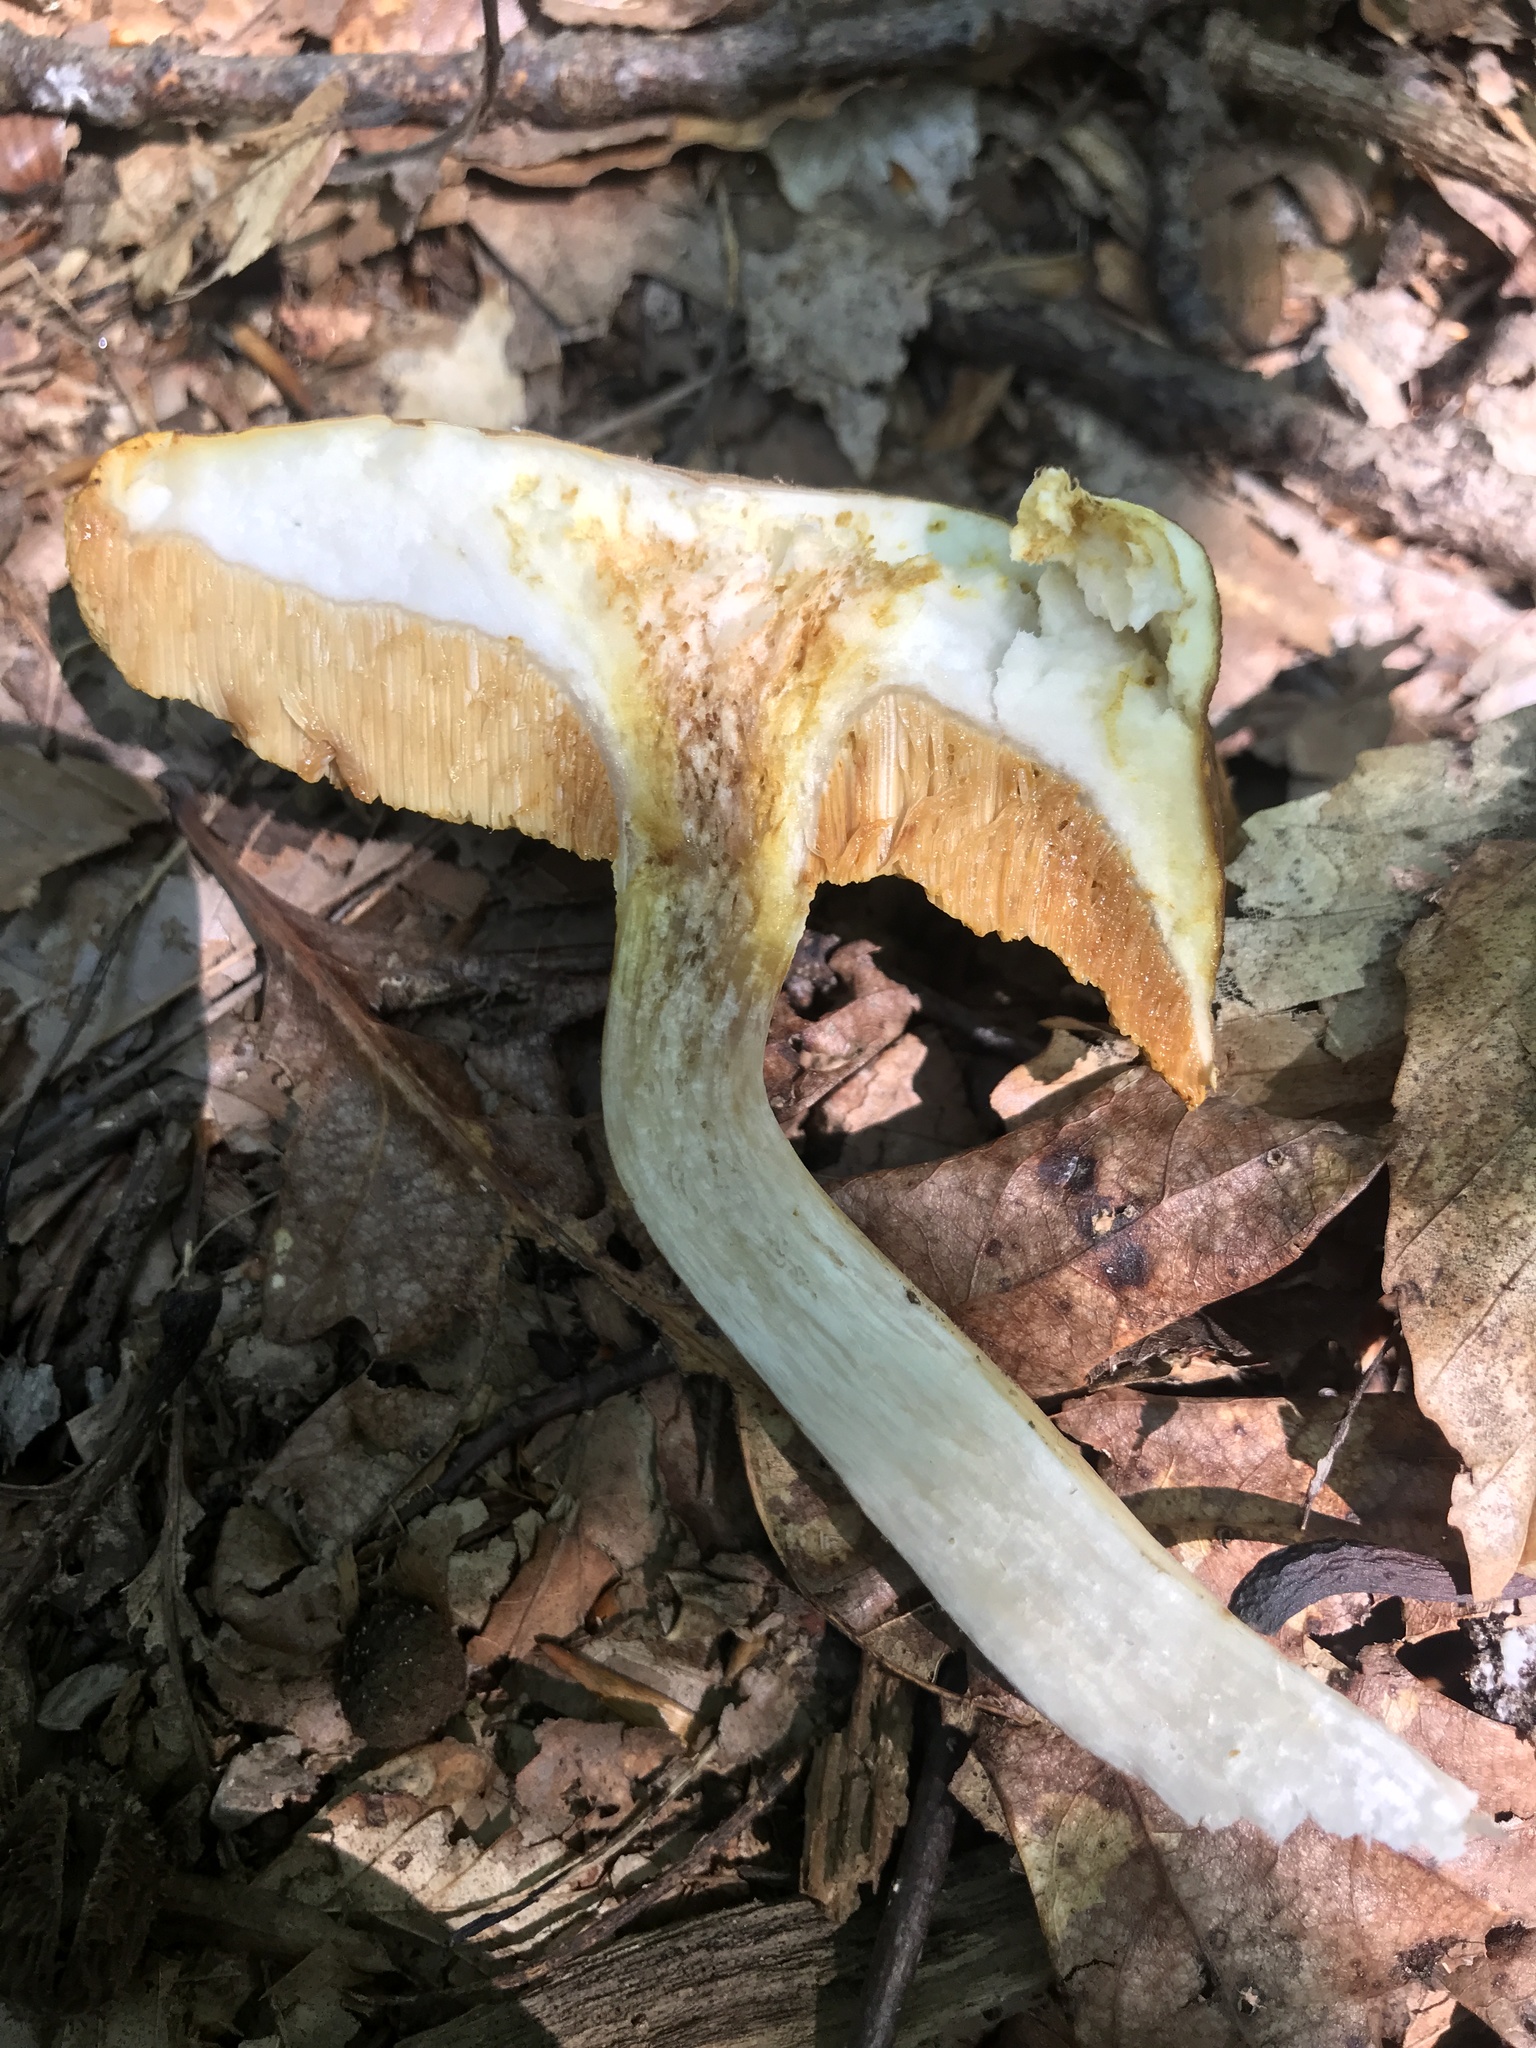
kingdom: Fungi
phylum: Basidiomycota
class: Agaricomycetes
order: Boletales
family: Boletaceae
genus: Xanthoconium
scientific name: Xanthoconium affine
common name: Spotted bolete
